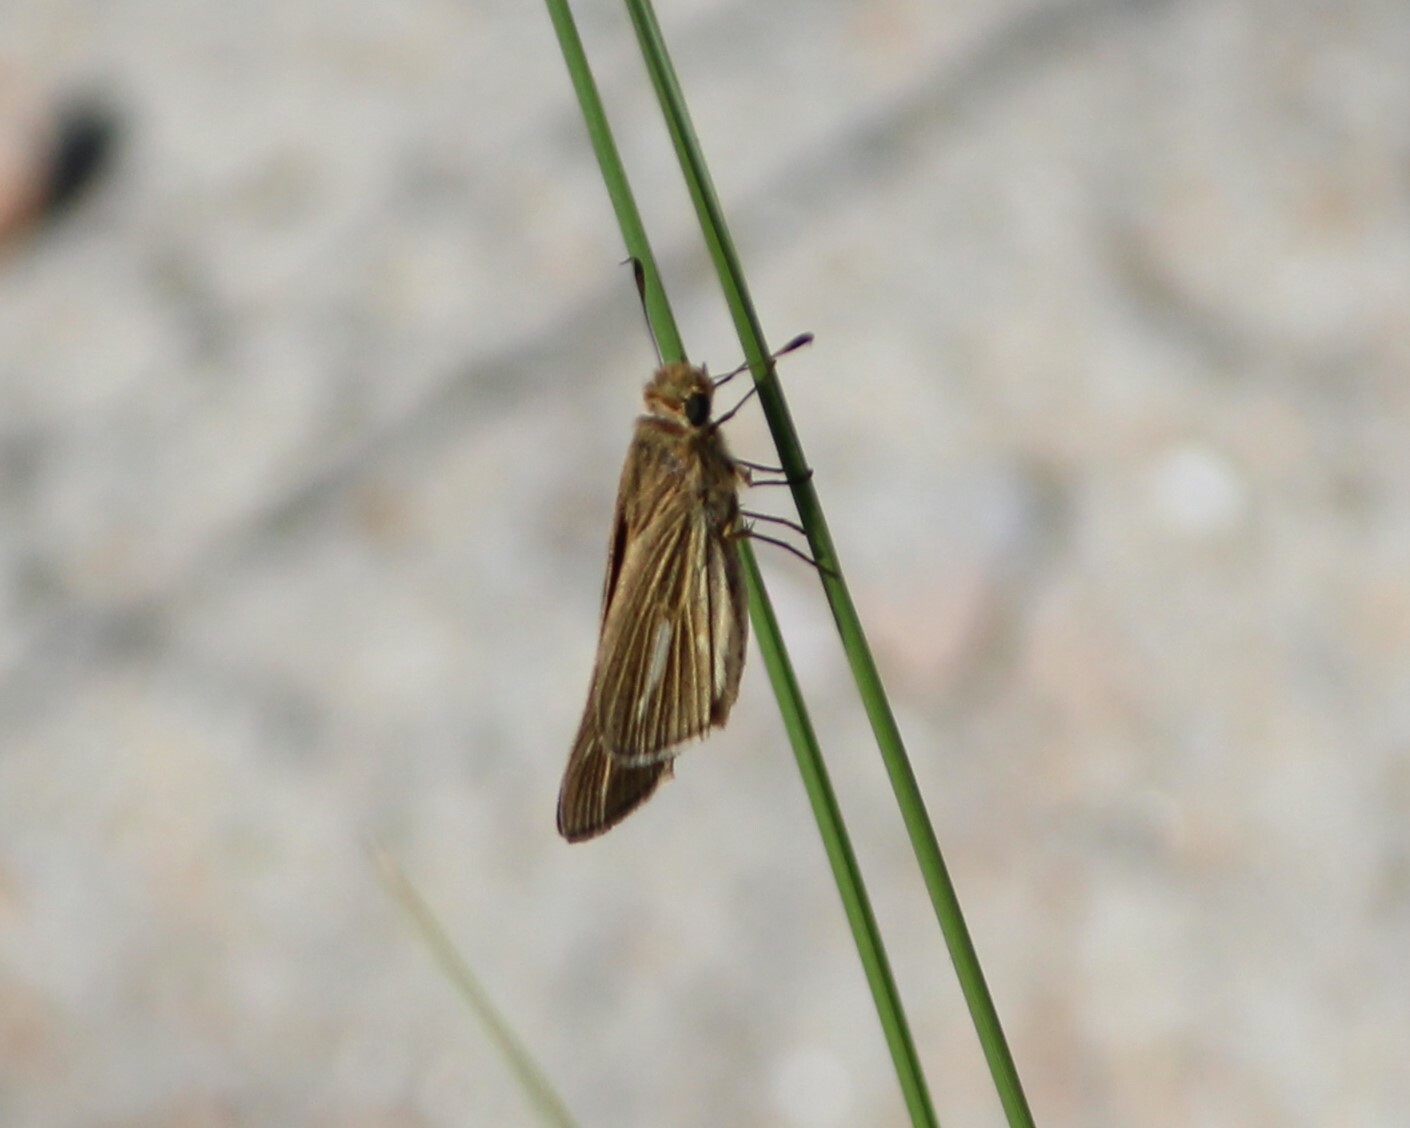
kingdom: Animalia
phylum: Arthropoda
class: Insecta
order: Lepidoptera
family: Hesperiidae
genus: Panoquina
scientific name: Panoquina panoquin
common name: Salt marsh skipper
